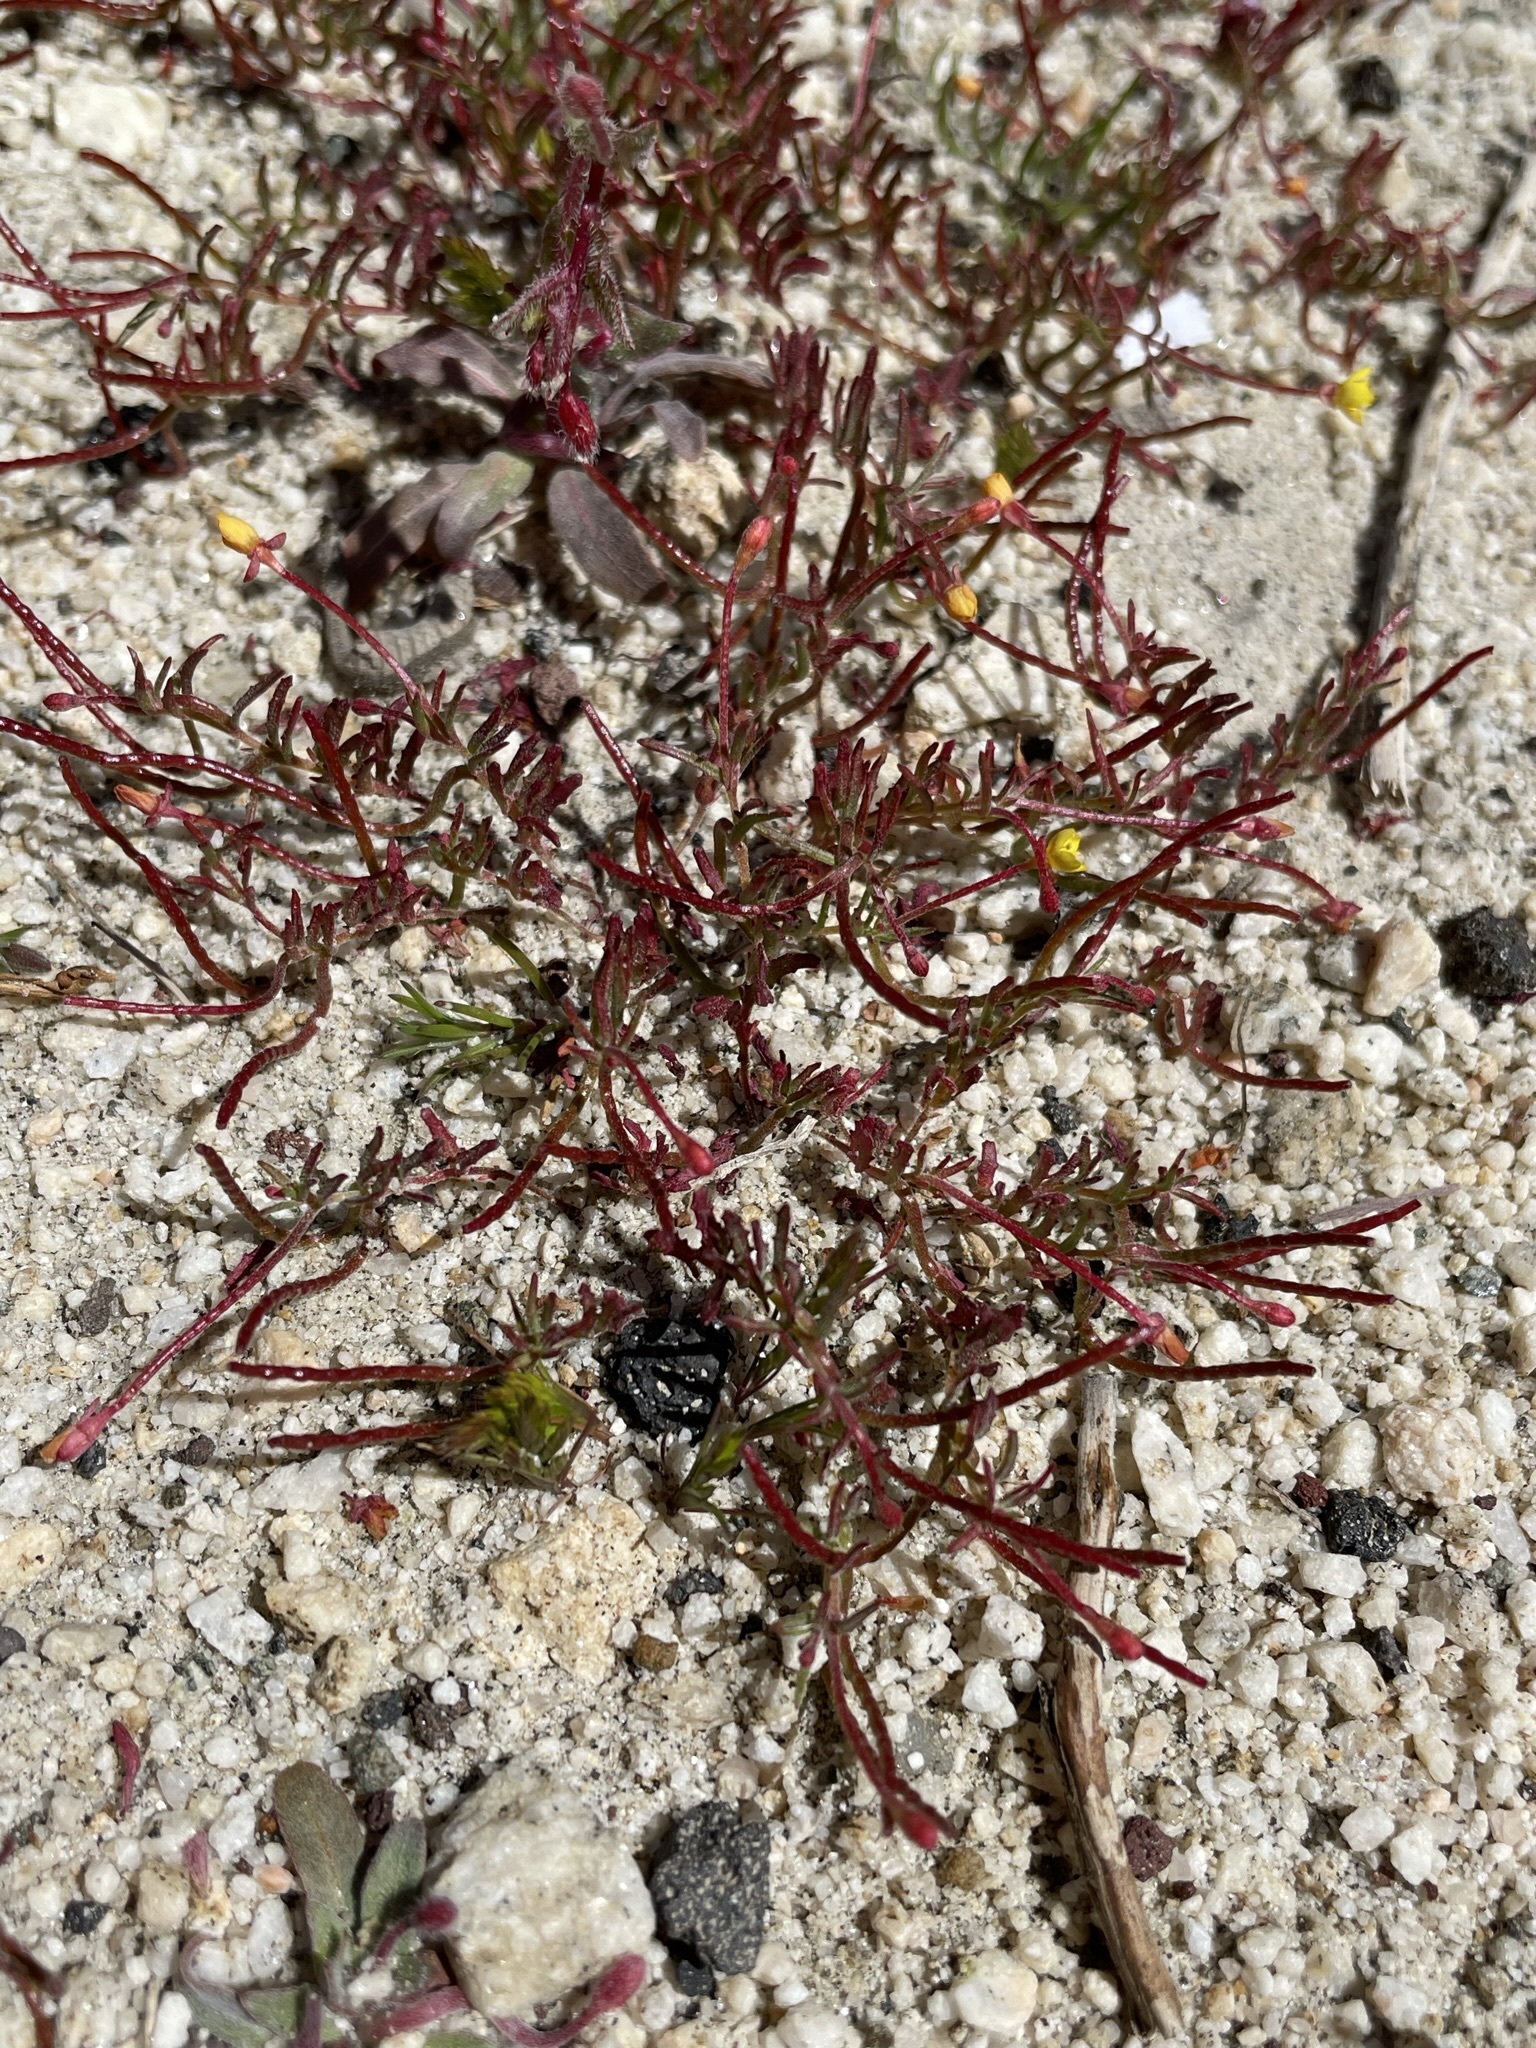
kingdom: Plantae
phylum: Tracheophyta
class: Magnoliopsida
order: Myrtales
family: Onagraceae
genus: Camissonia
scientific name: Camissonia strigulosa
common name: Contorted-primrose
